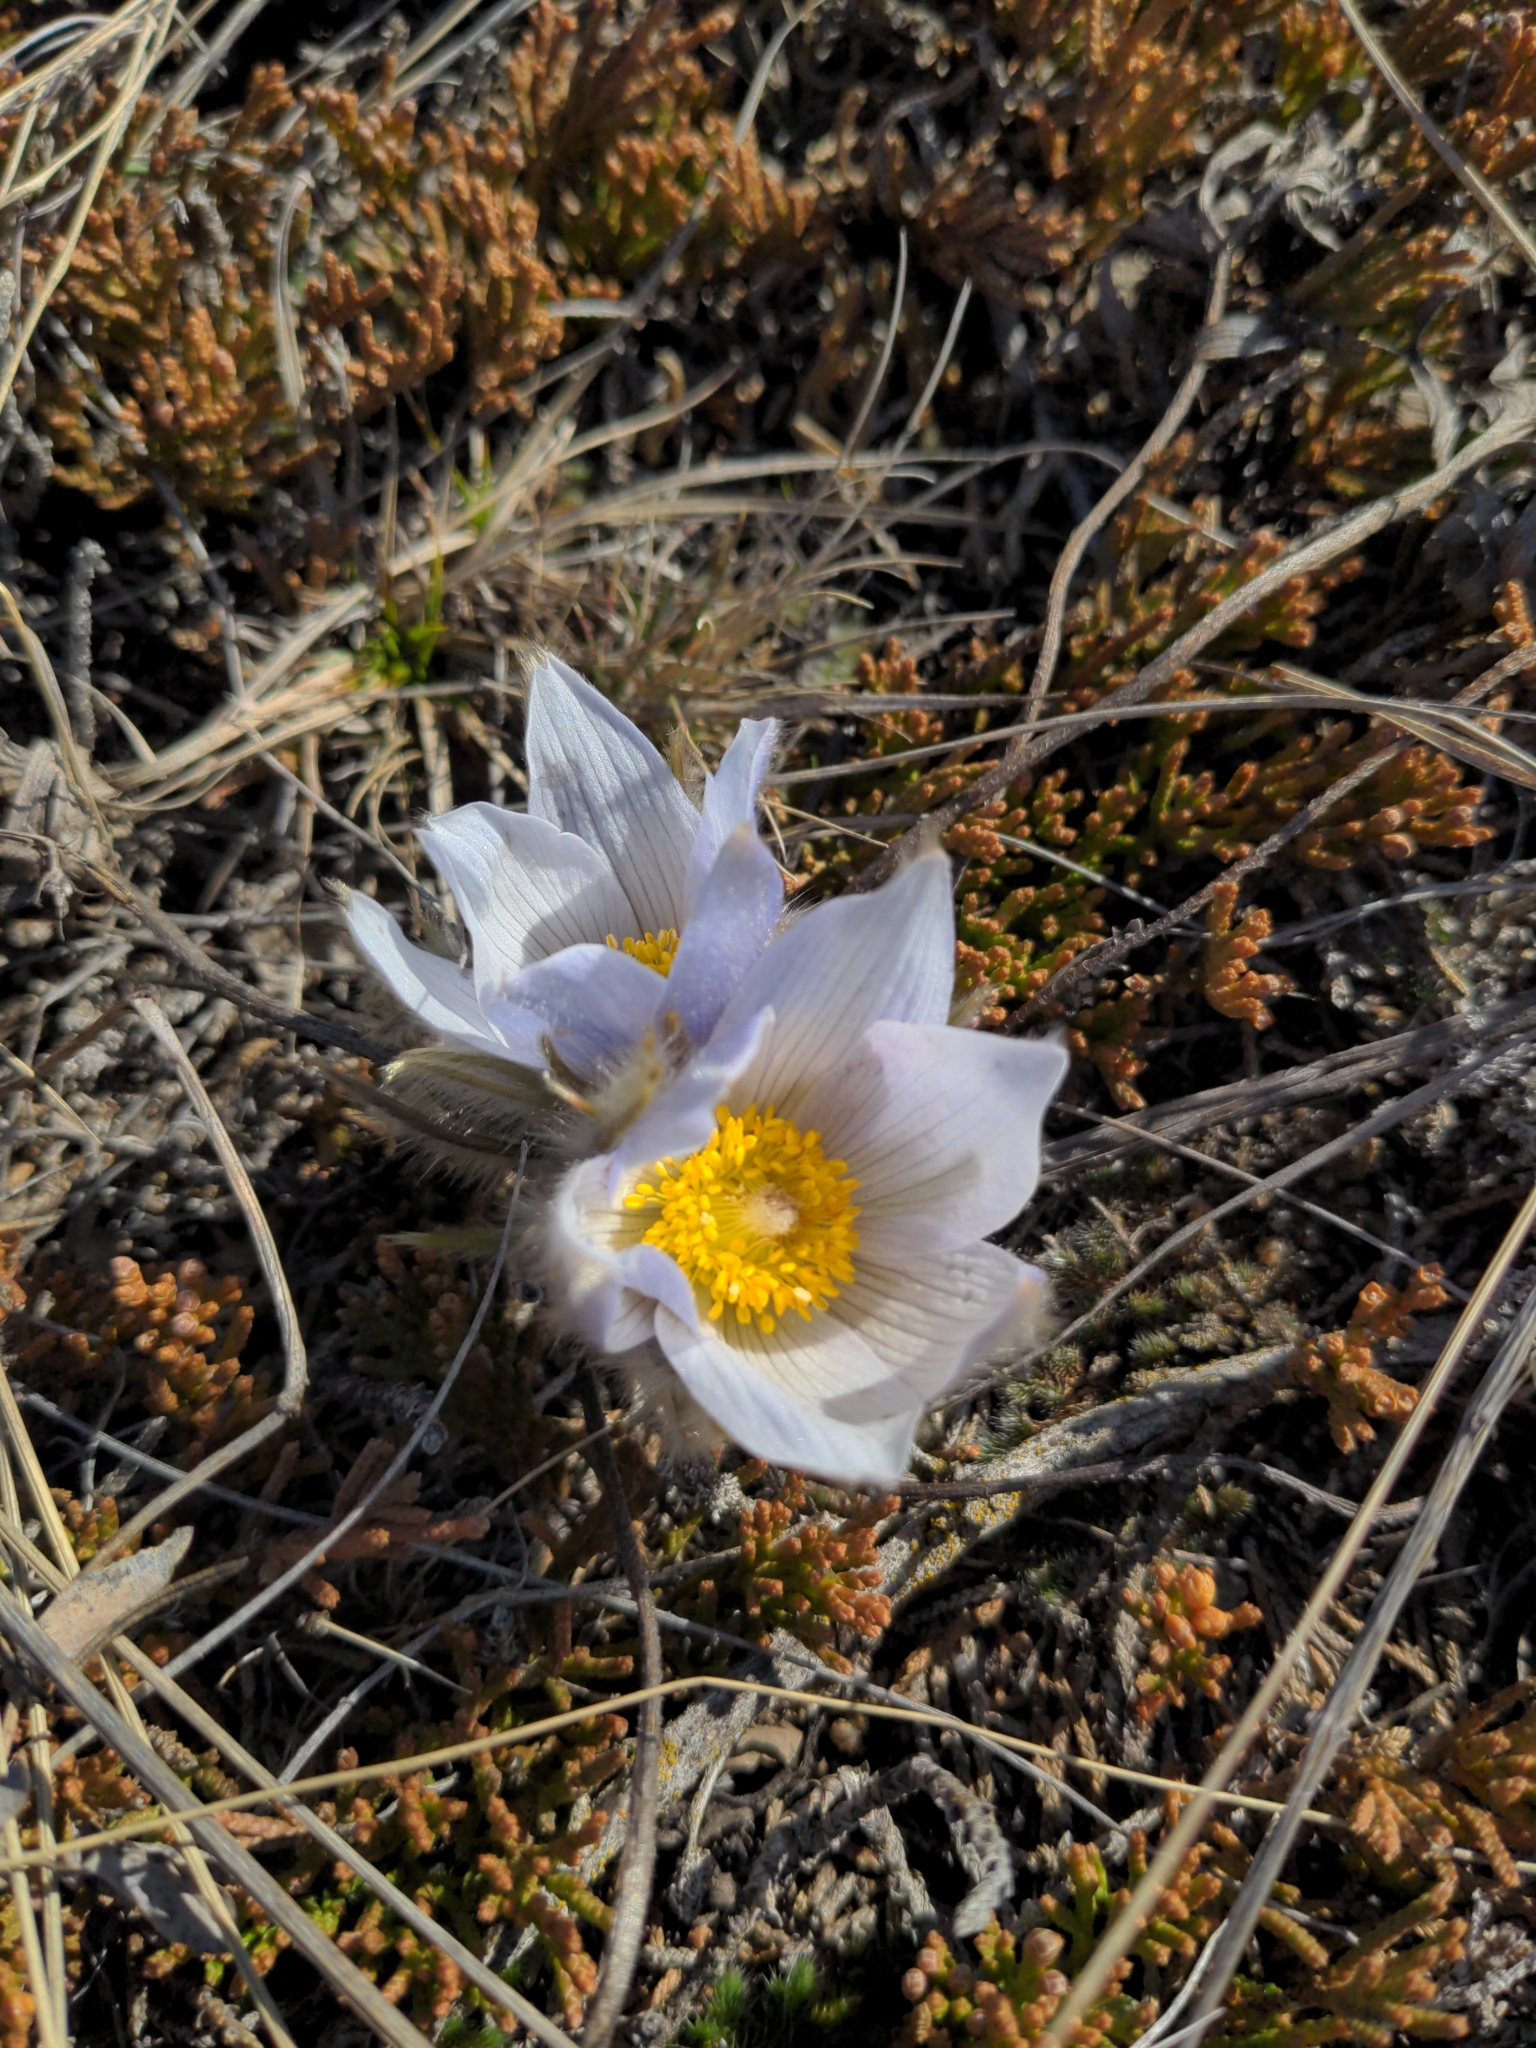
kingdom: Plantae
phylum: Tracheophyta
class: Magnoliopsida
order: Ranunculales
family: Ranunculaceae
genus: Pulsatilla
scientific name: Pulsatilla nuttalliana
